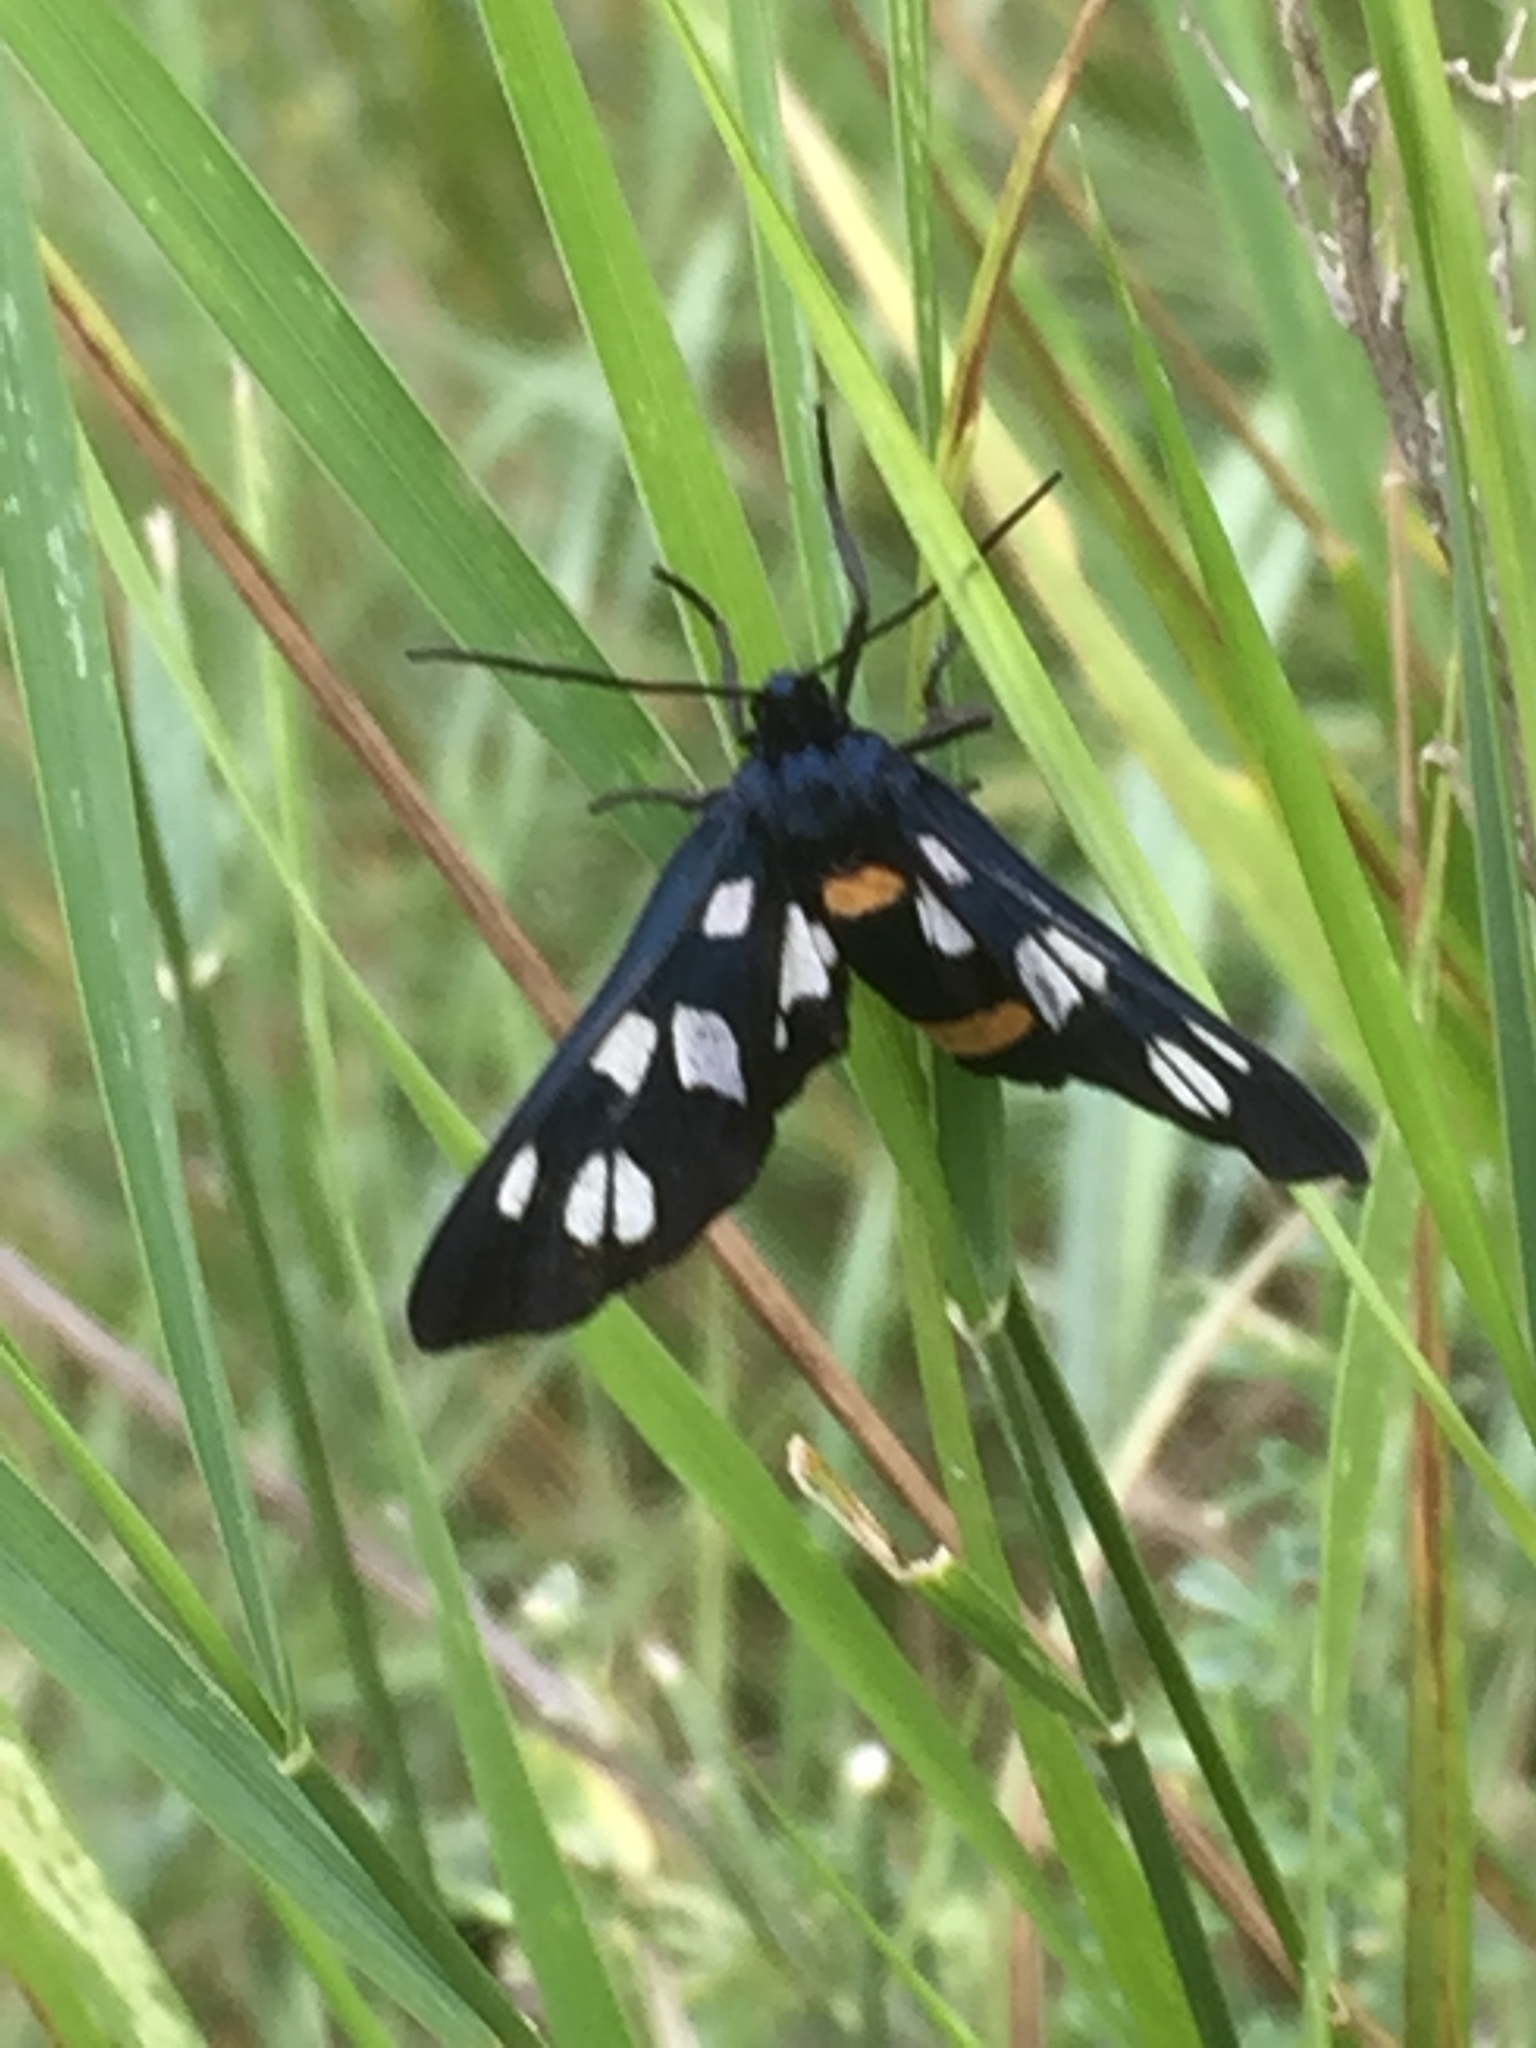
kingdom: Animalia
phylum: Arthropoda
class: Insecta
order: Lepidoptera
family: Erebidae
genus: Amata
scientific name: Amata phegea
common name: Nine-spotted
